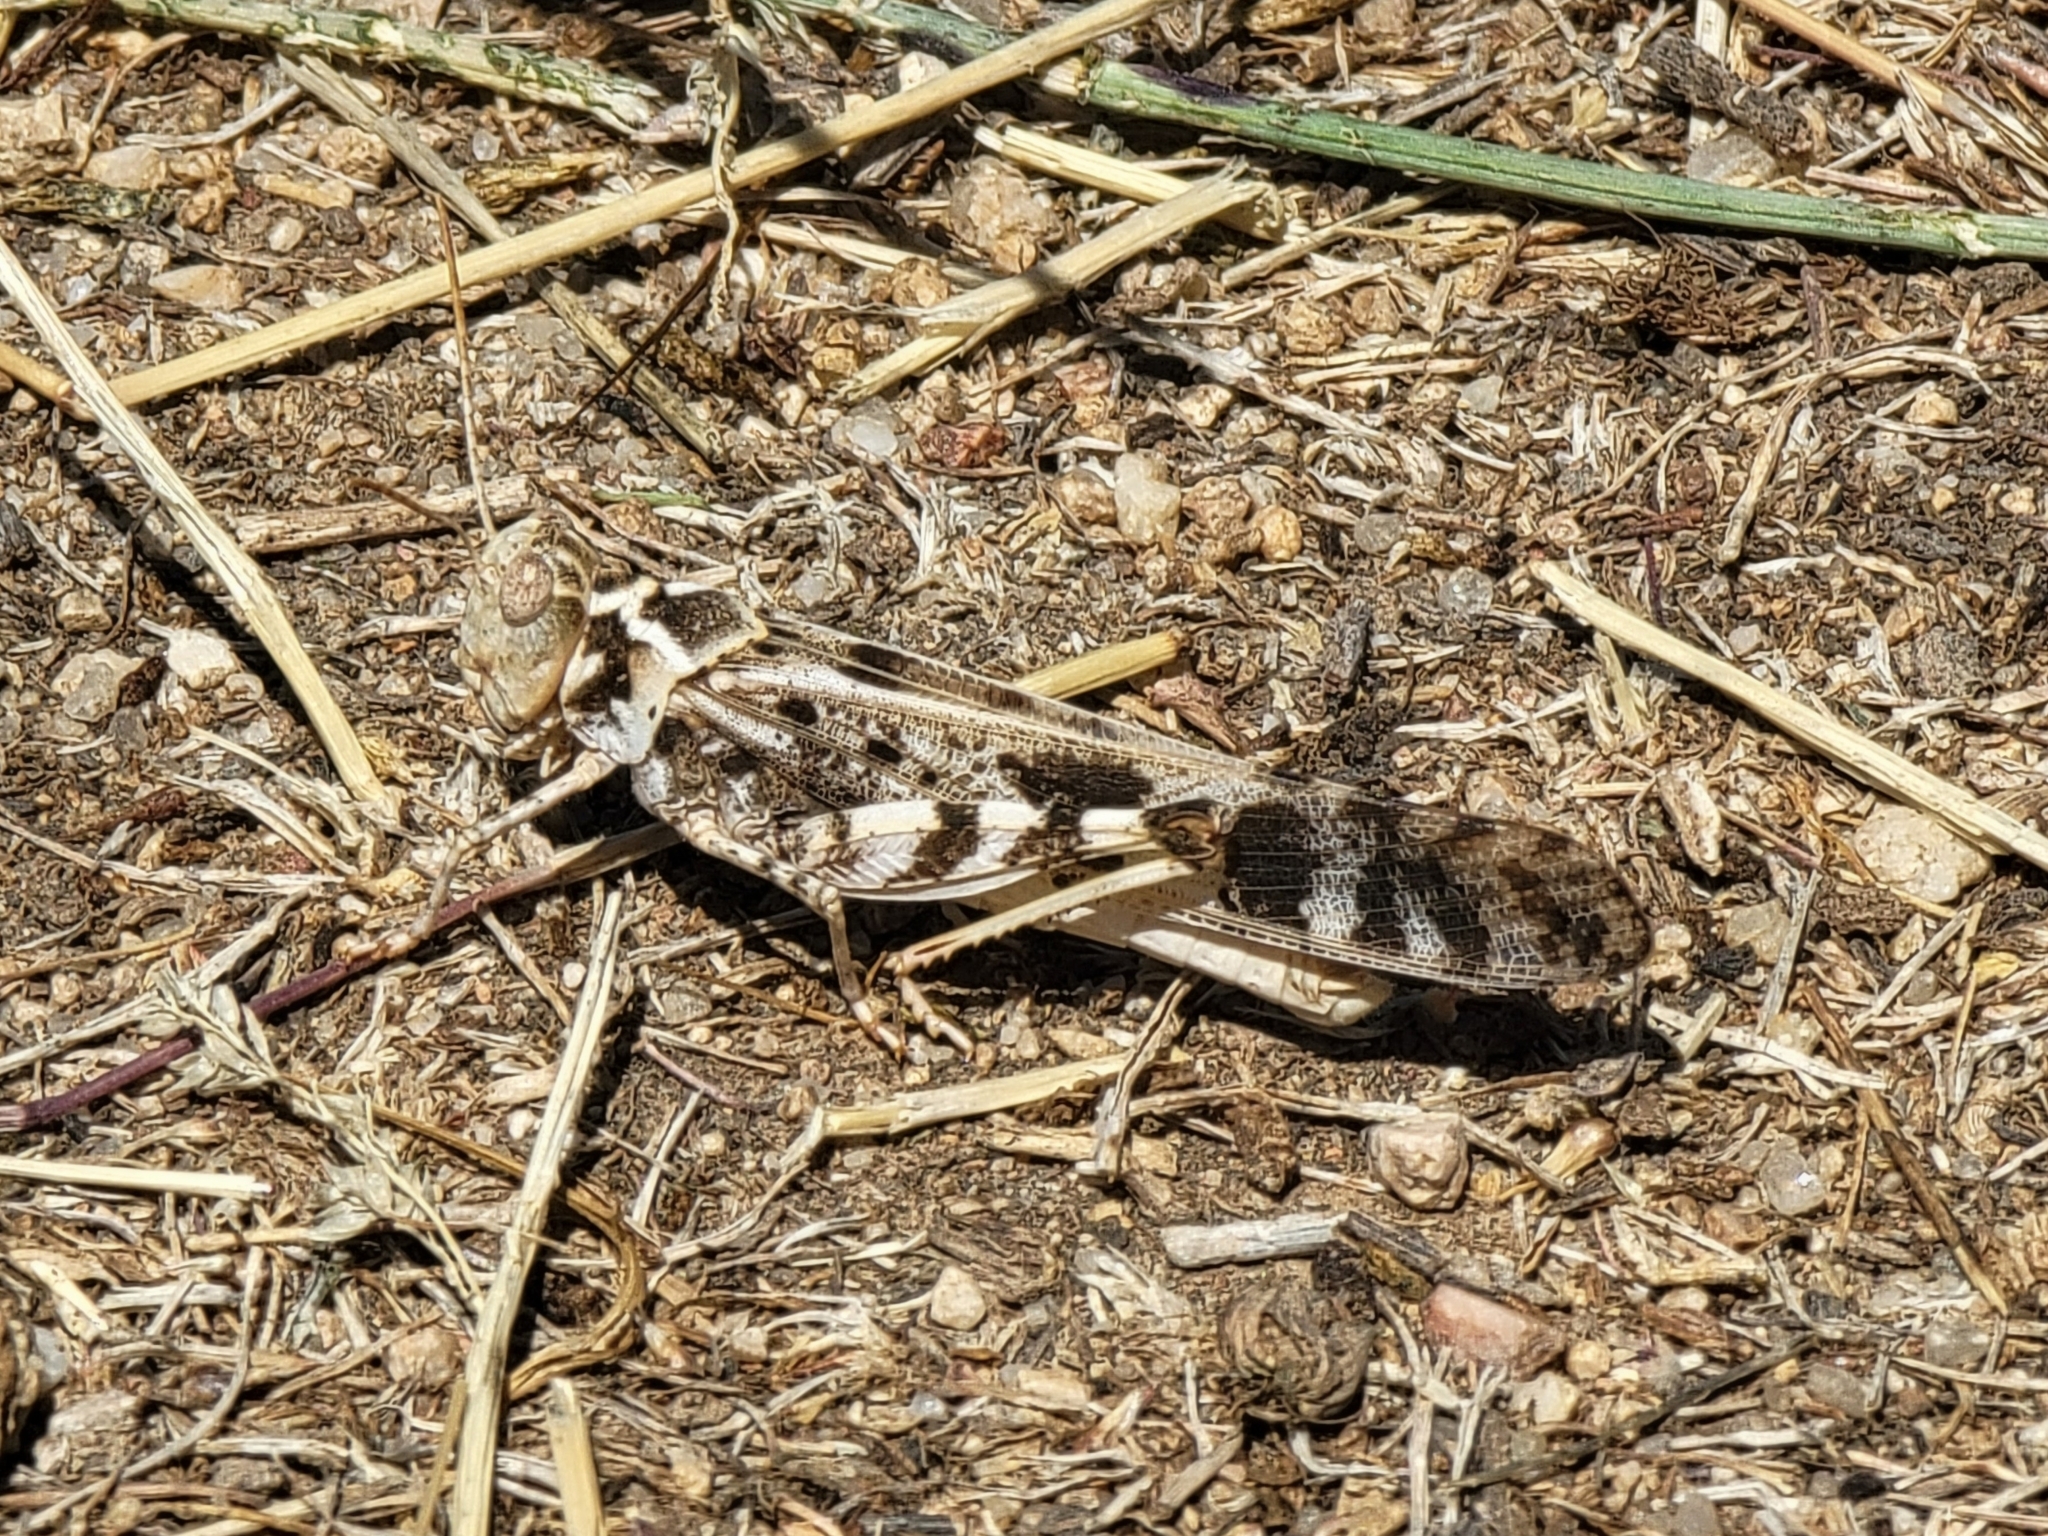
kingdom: Animalia
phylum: Arthropoda
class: Insecta
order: Orthoptera
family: Acrididae
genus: Dissosteira
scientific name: Dissosteira spurcata
